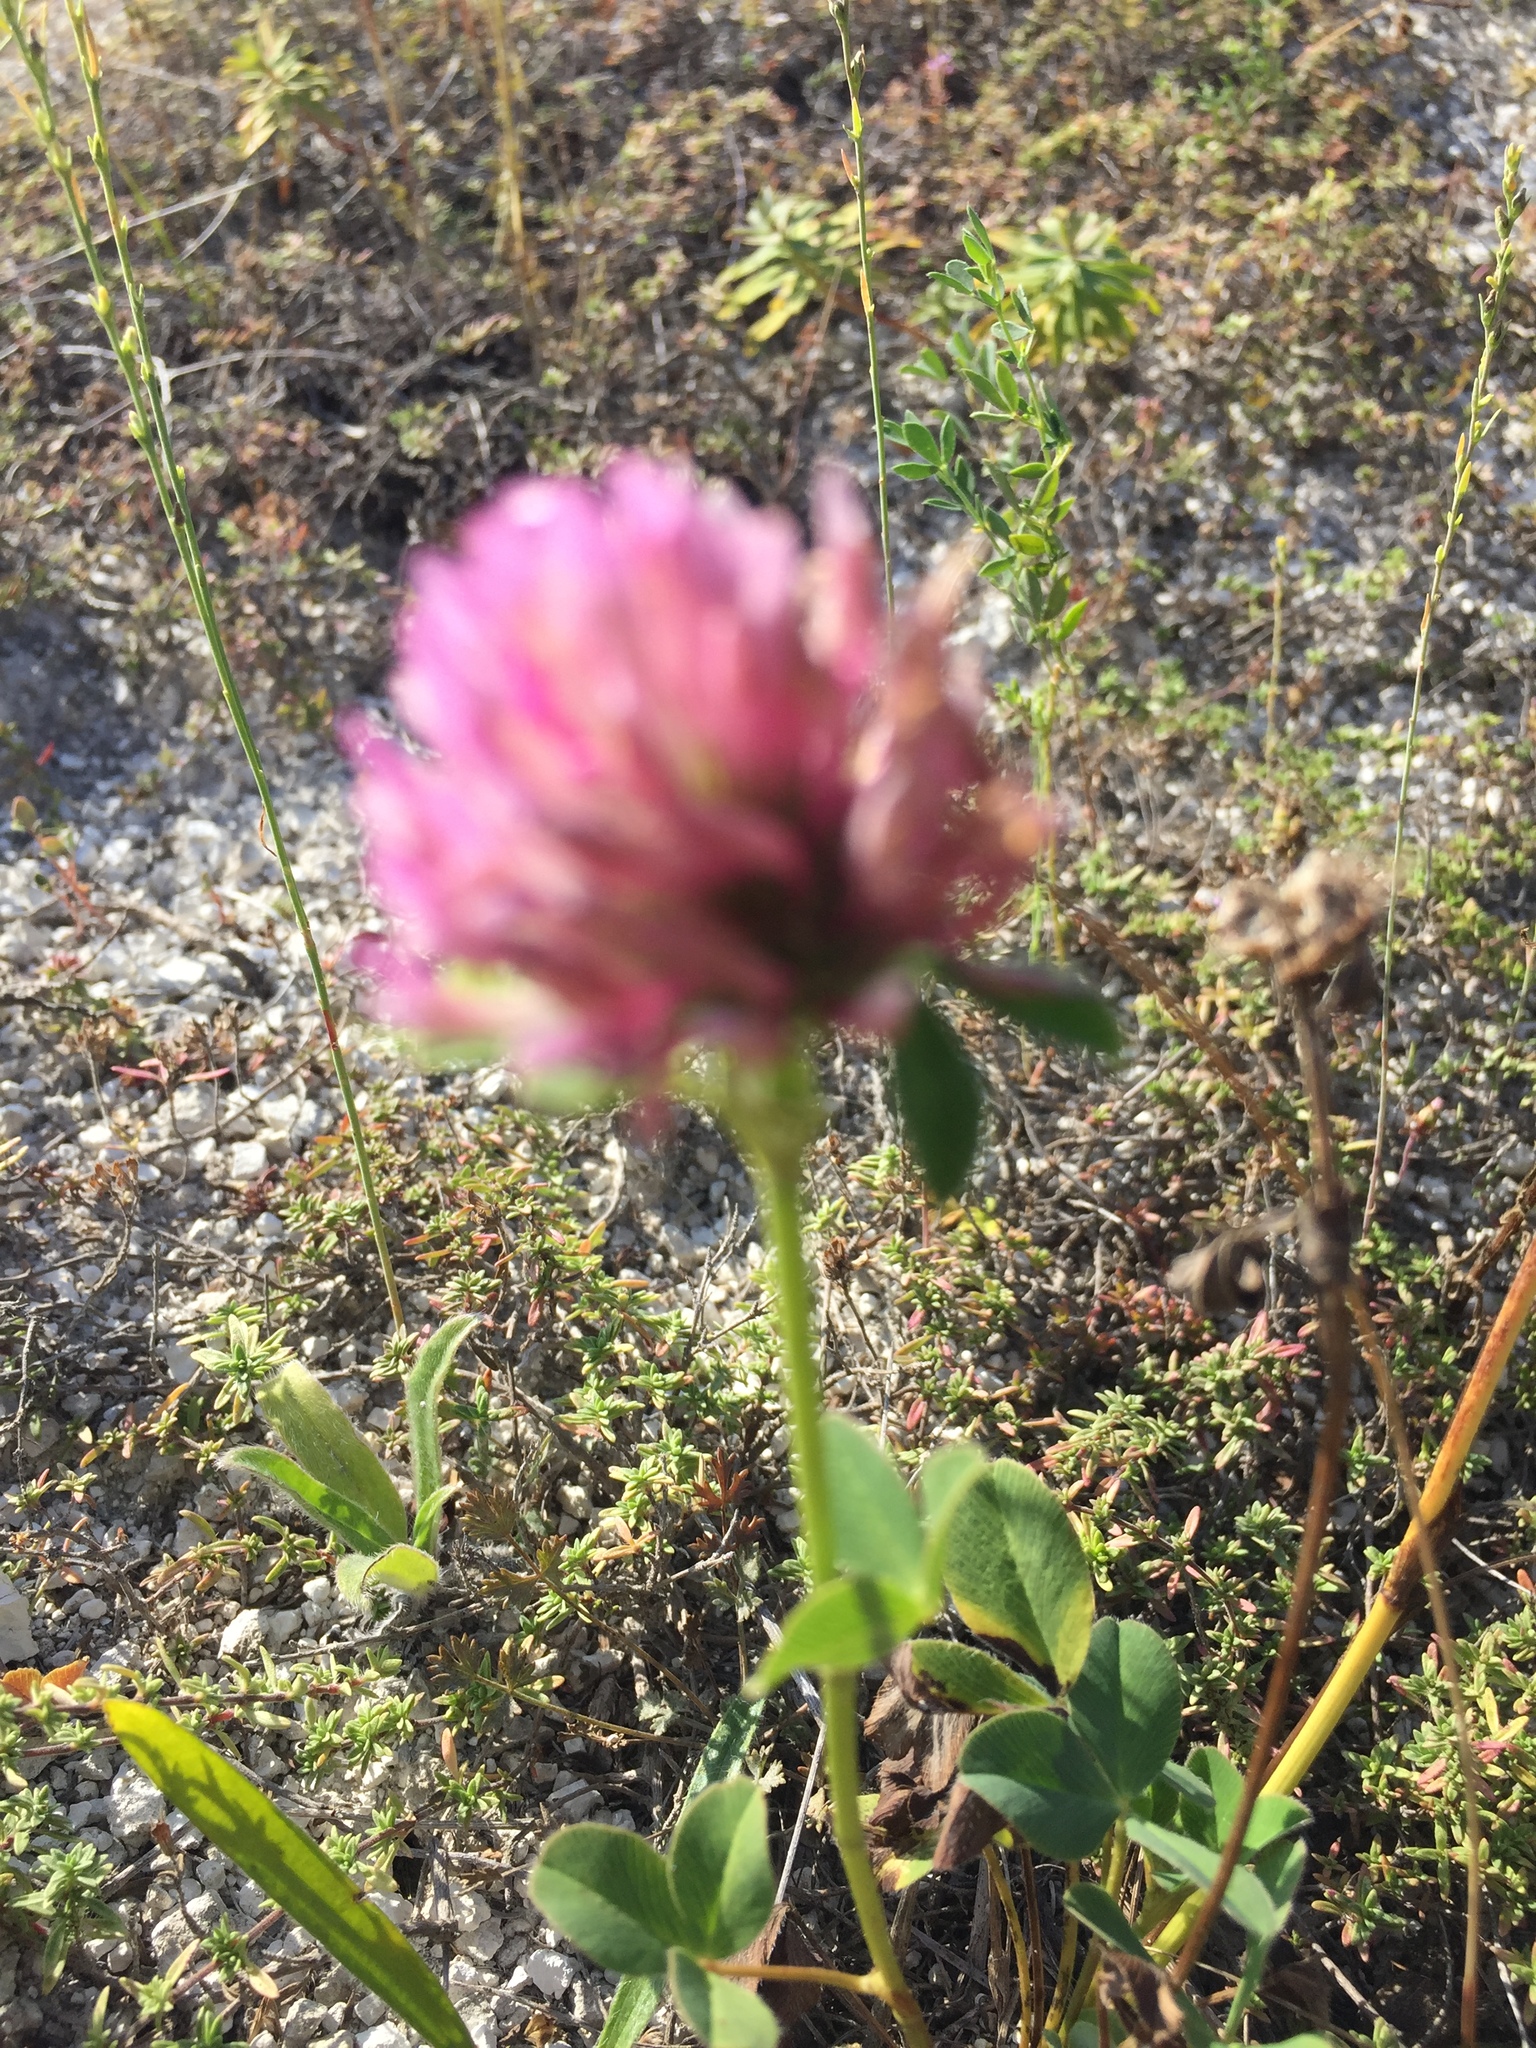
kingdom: Plantae
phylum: Tracheophyta
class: Magnoliopsida
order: Fabales
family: Fabaceae
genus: Trifolium
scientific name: Trifolium pratense
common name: Red clover
